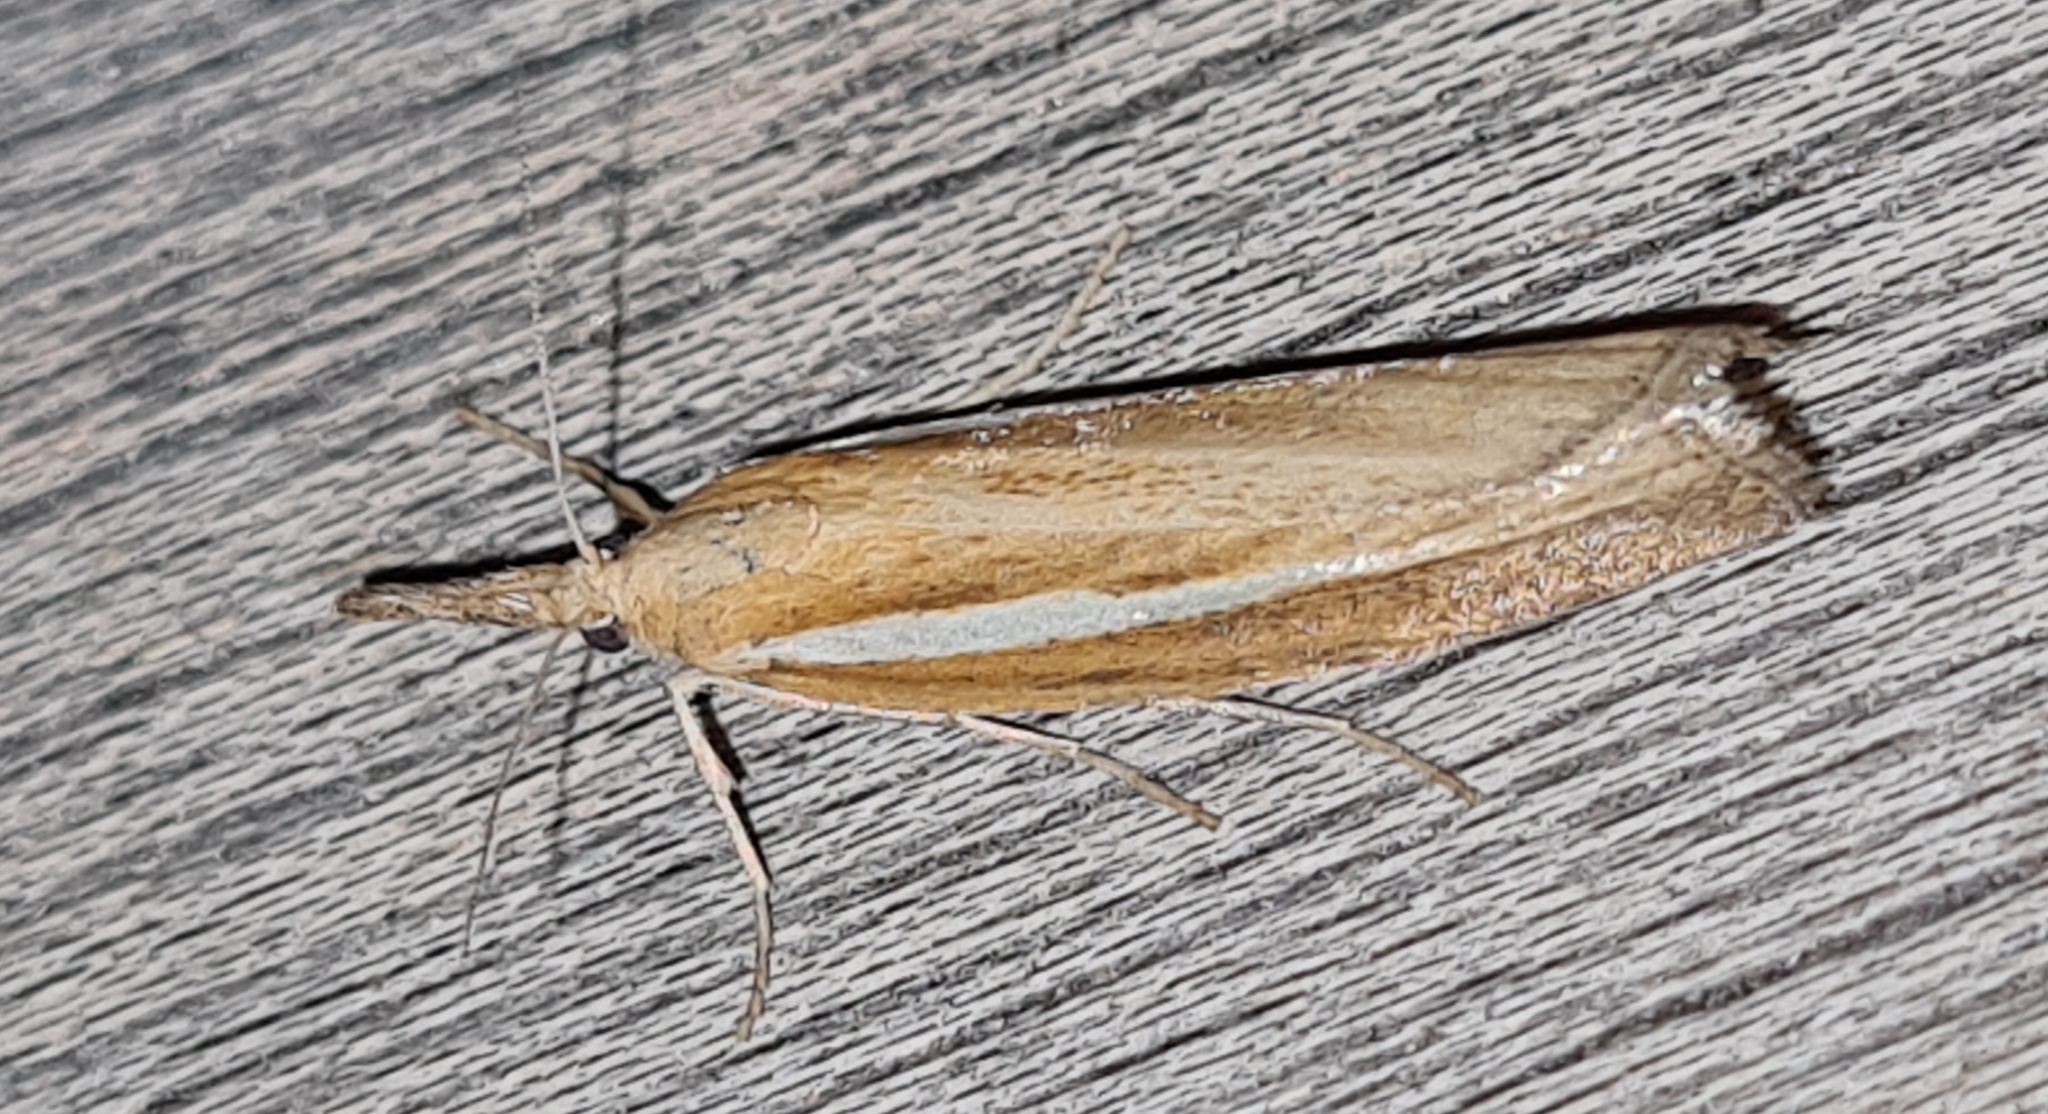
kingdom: Animalia
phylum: Arthropoda
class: Insecta
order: Lepidoptera
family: Crambidae
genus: Agriphila
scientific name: Agriphila tristellus
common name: Common grass-veneer
